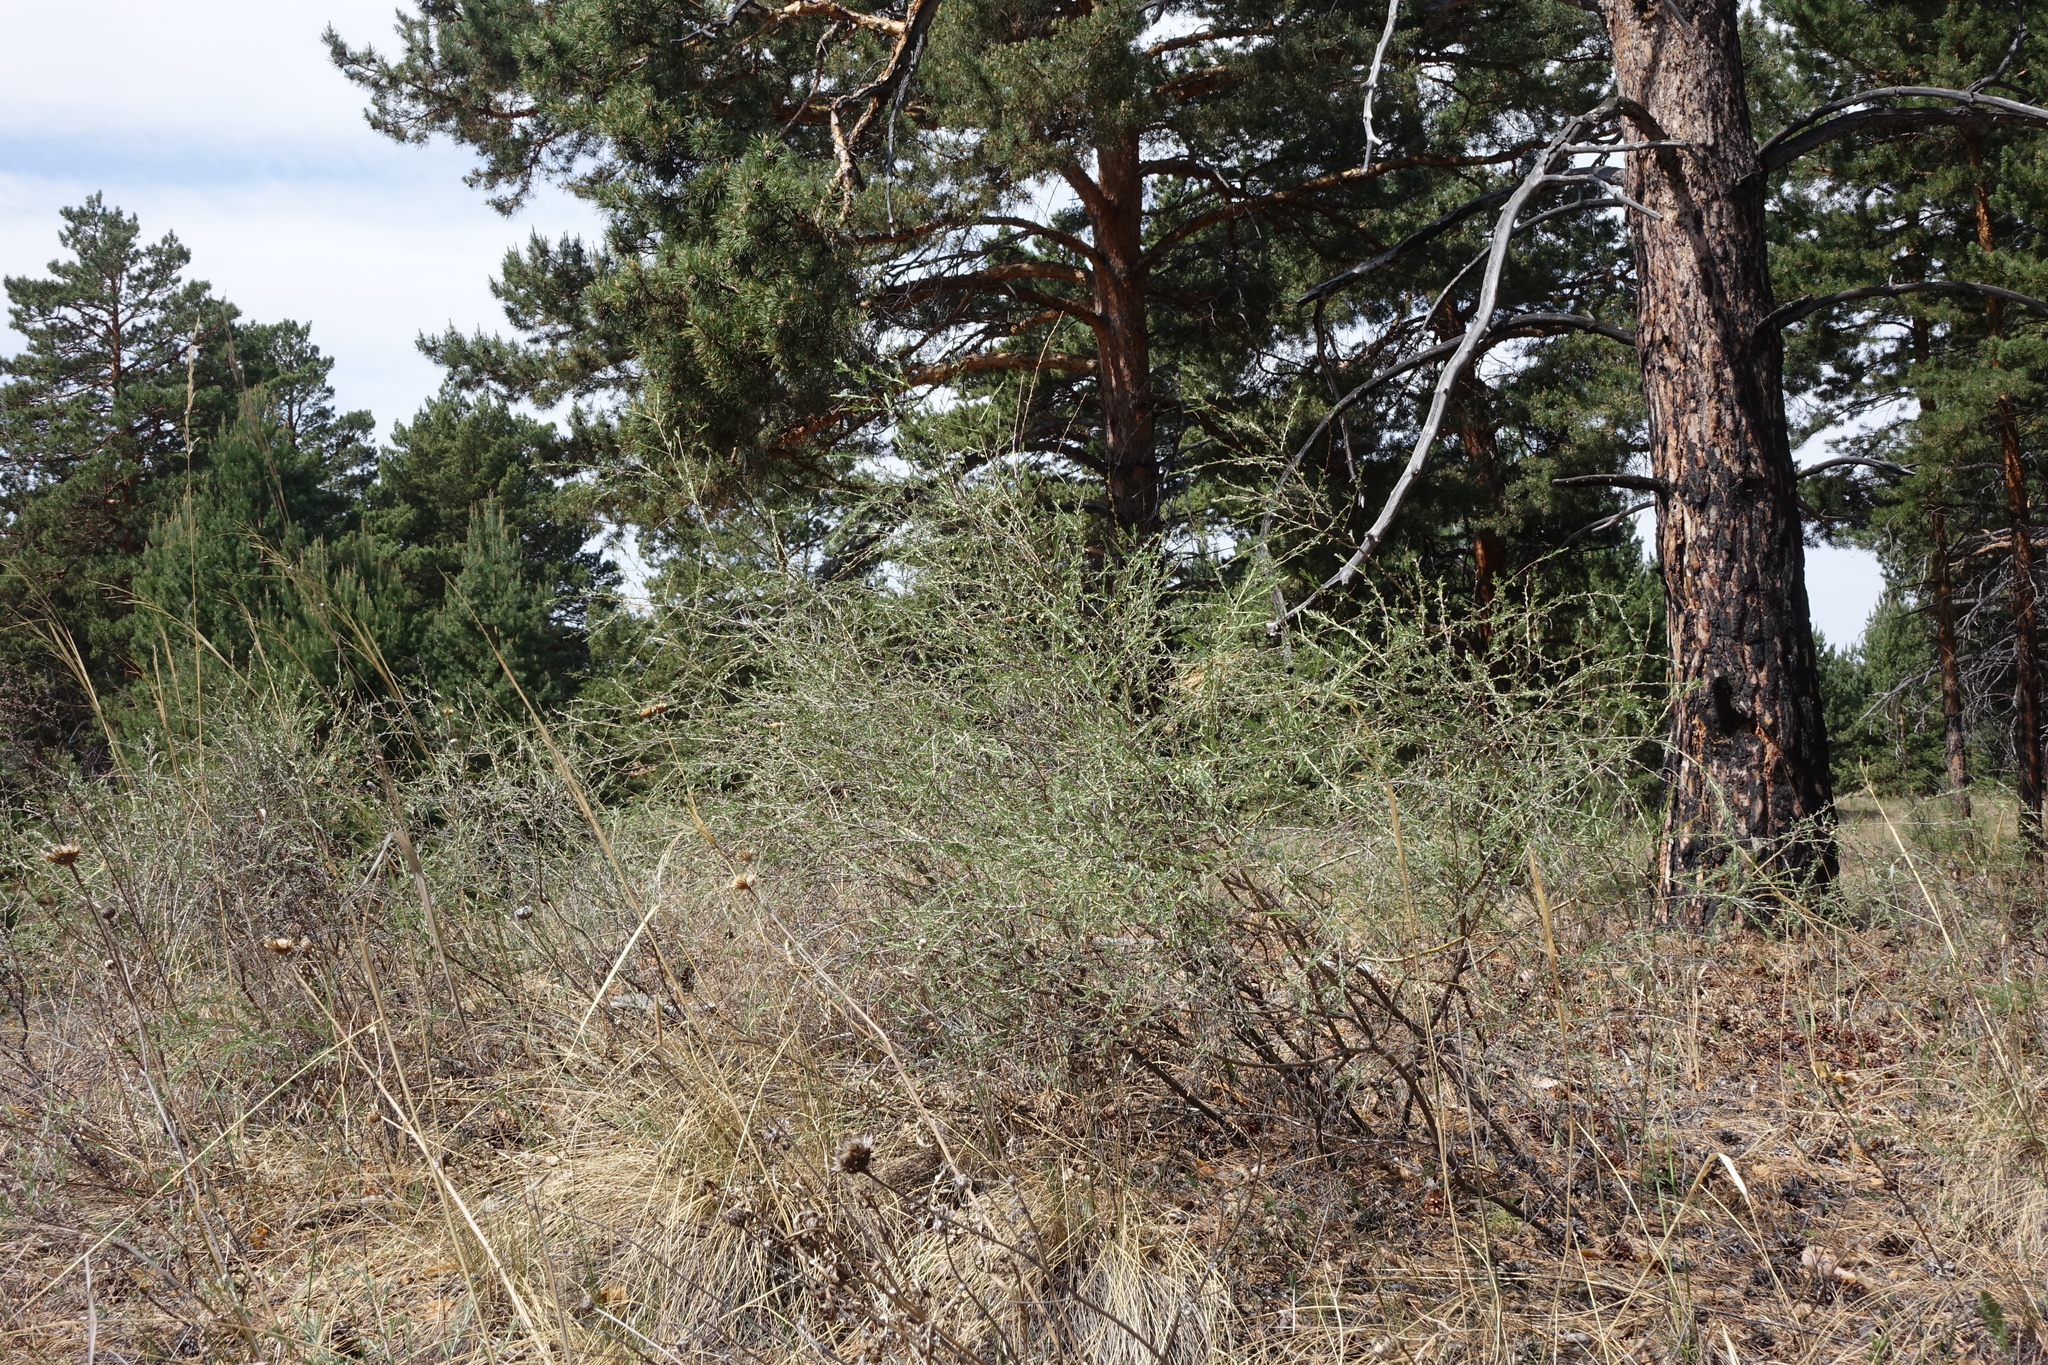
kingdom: Plantae
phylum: Tracheophyta
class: Magnoliopsida
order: Fabales
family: Fabaceae
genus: Caragana
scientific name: Caragana pygmaea
